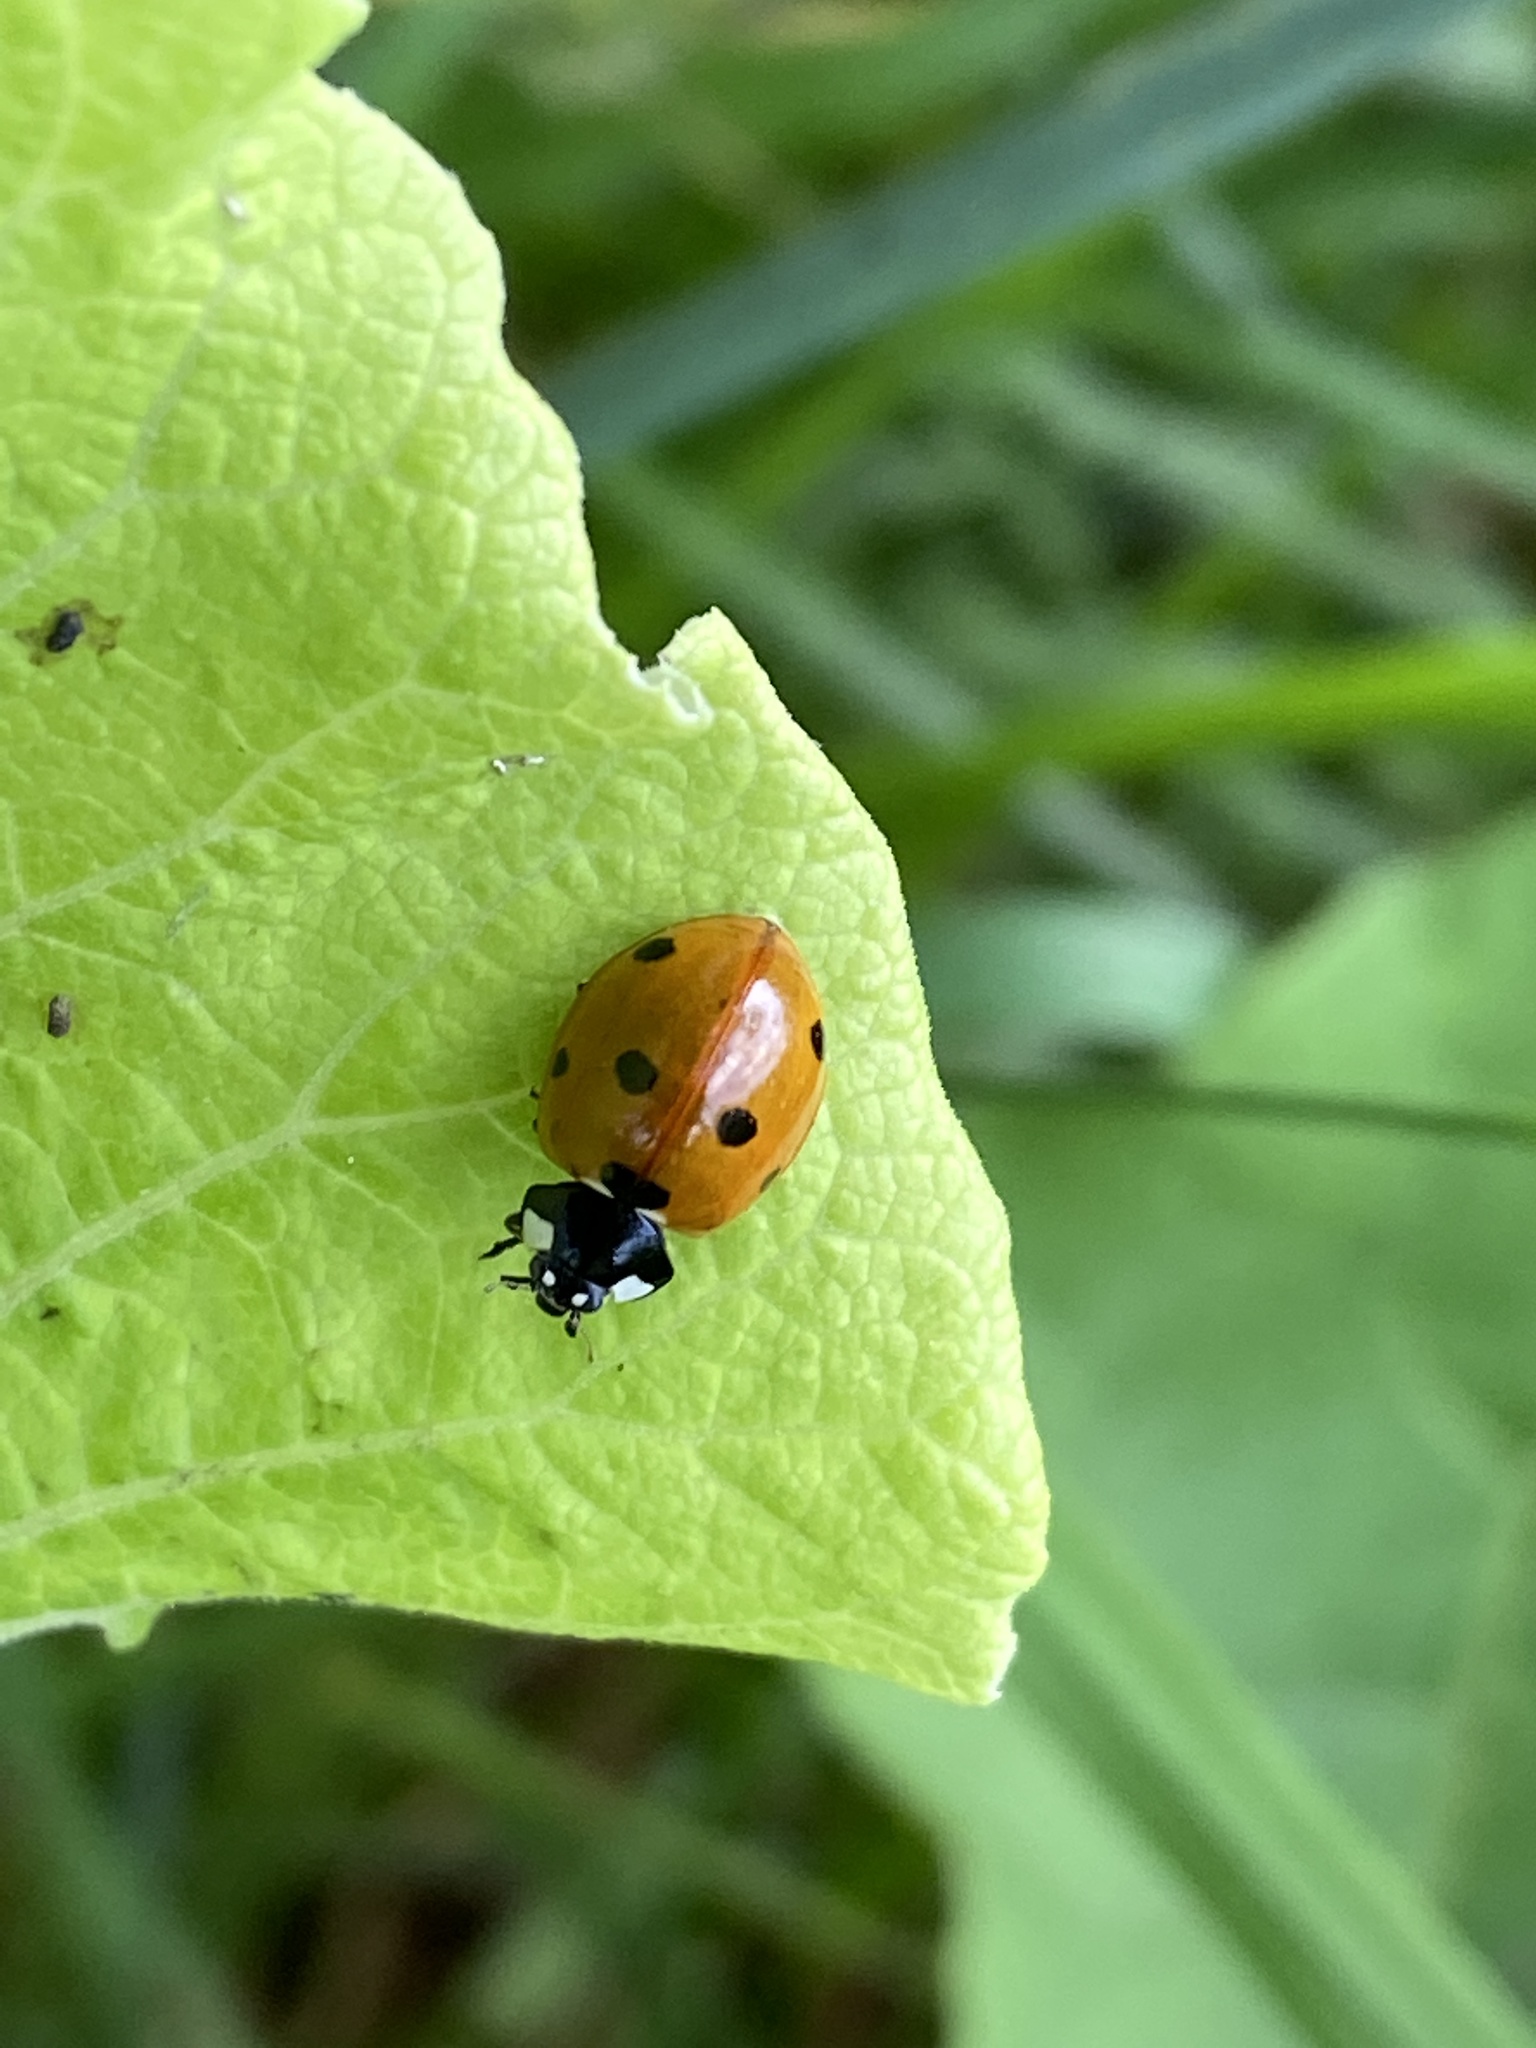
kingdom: Animalia
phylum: Arthropoda
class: Insecta
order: Coleoptera
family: Coccinellidae
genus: Coccinella
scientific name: Coccinella septempunctata
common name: Sevenspotted lady beetle
